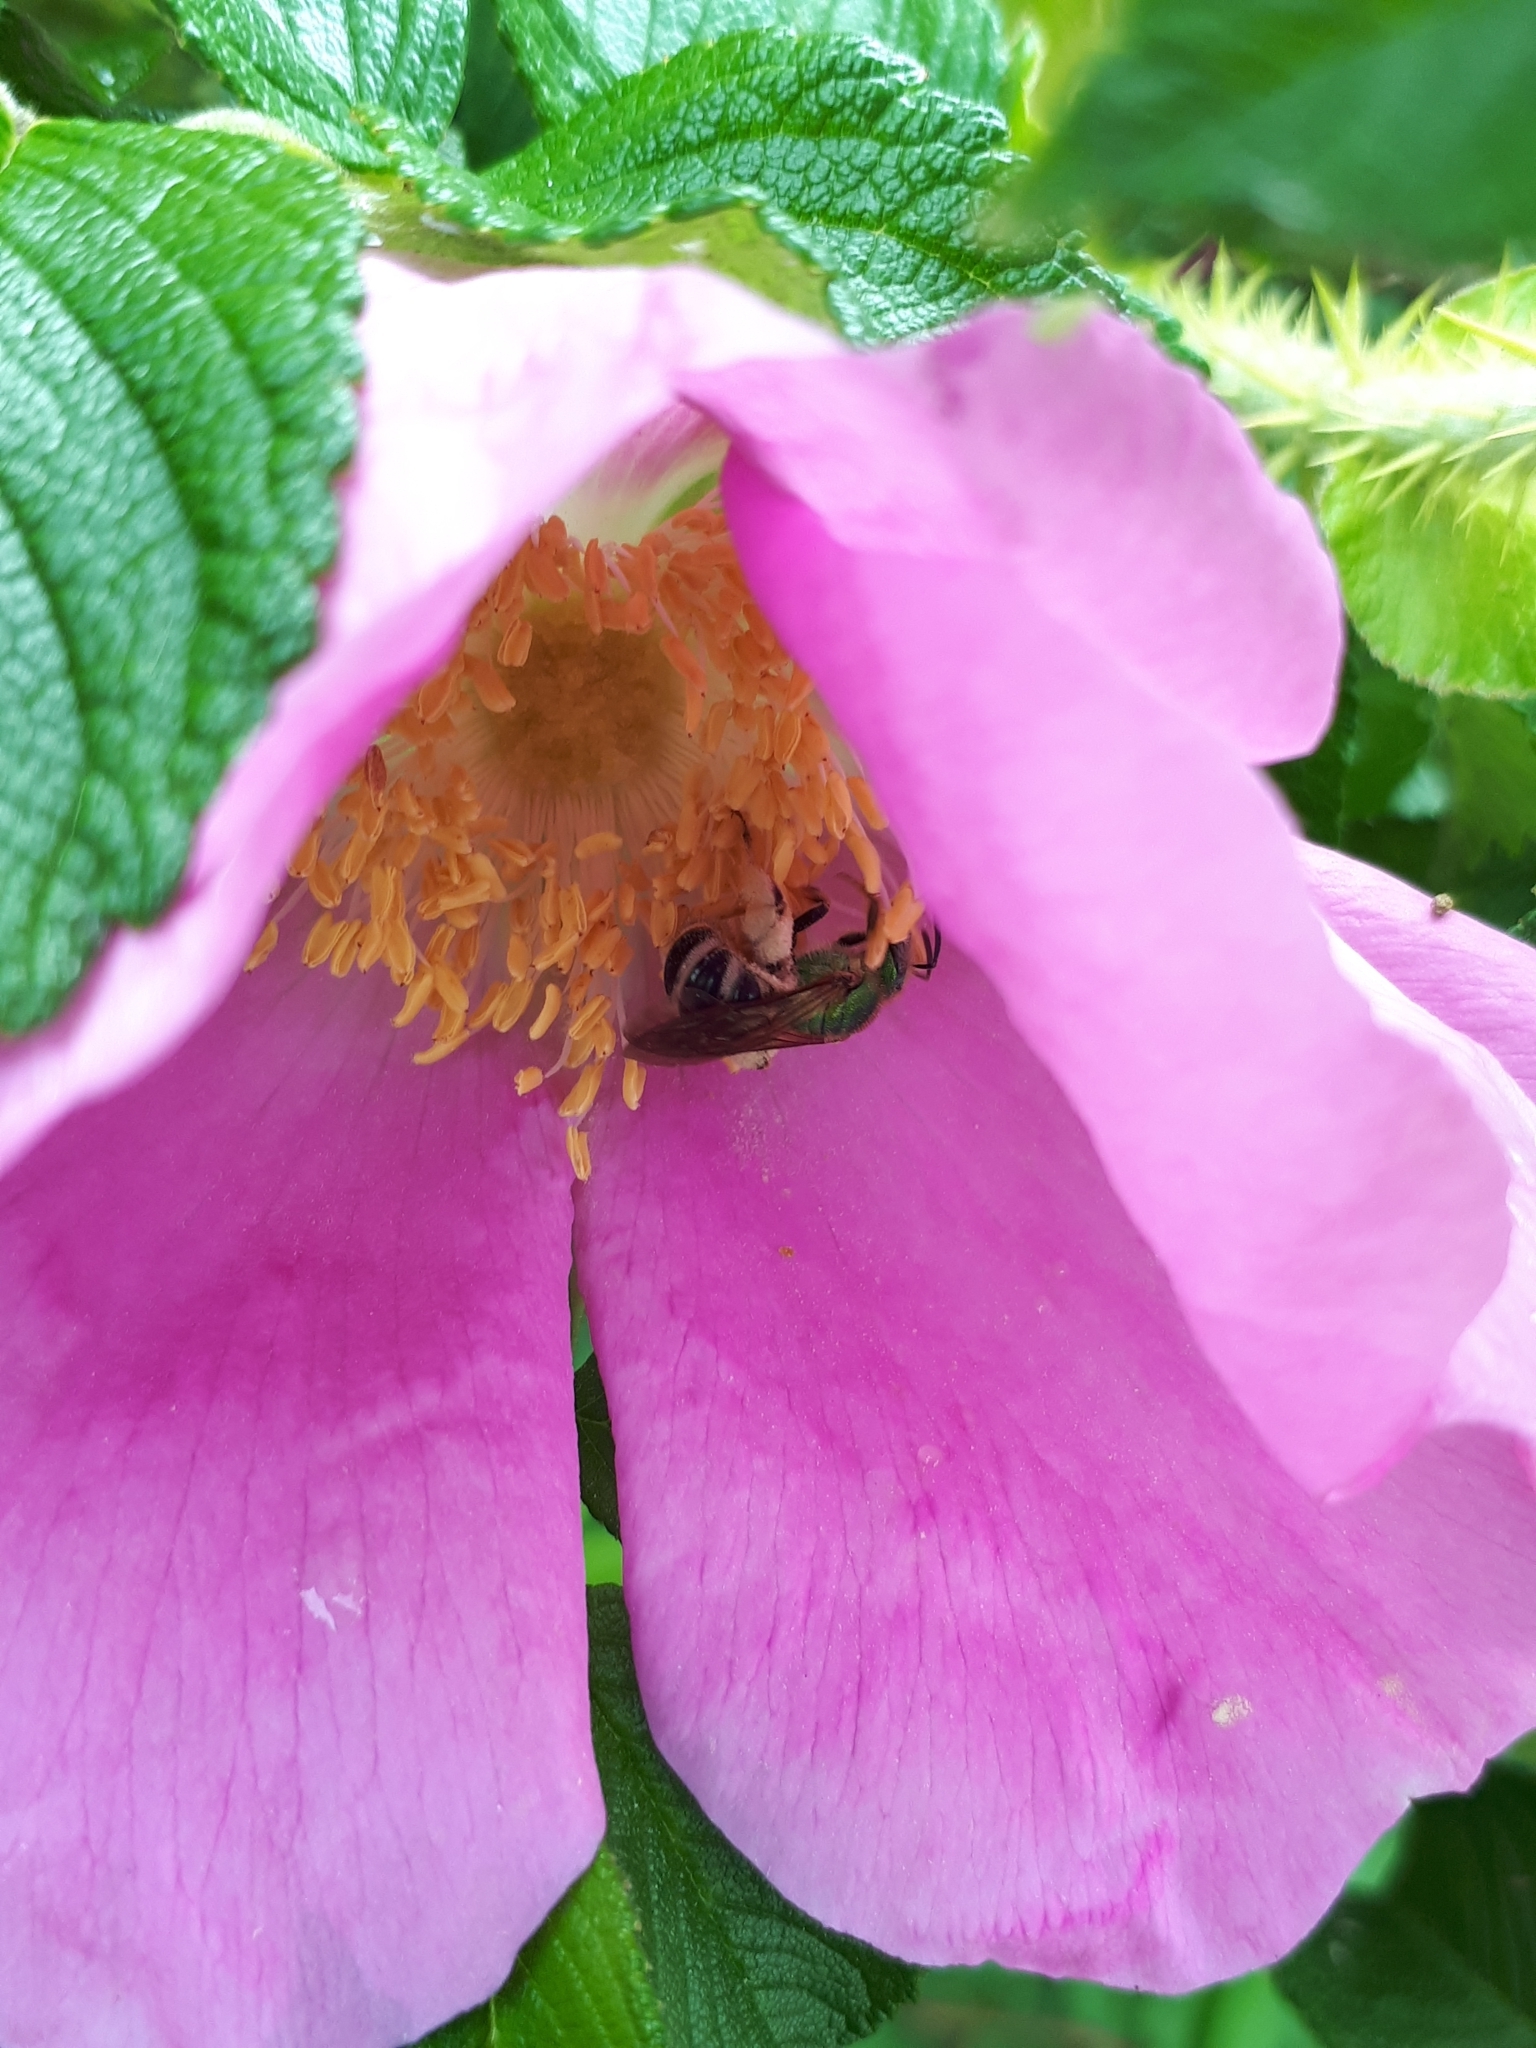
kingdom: Animalia
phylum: Arthropoda
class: Insecta
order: Hymenoptera
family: Halictidae
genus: Agapostemon
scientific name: Agapostemon virescens
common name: Bicolored striped sweat bee
